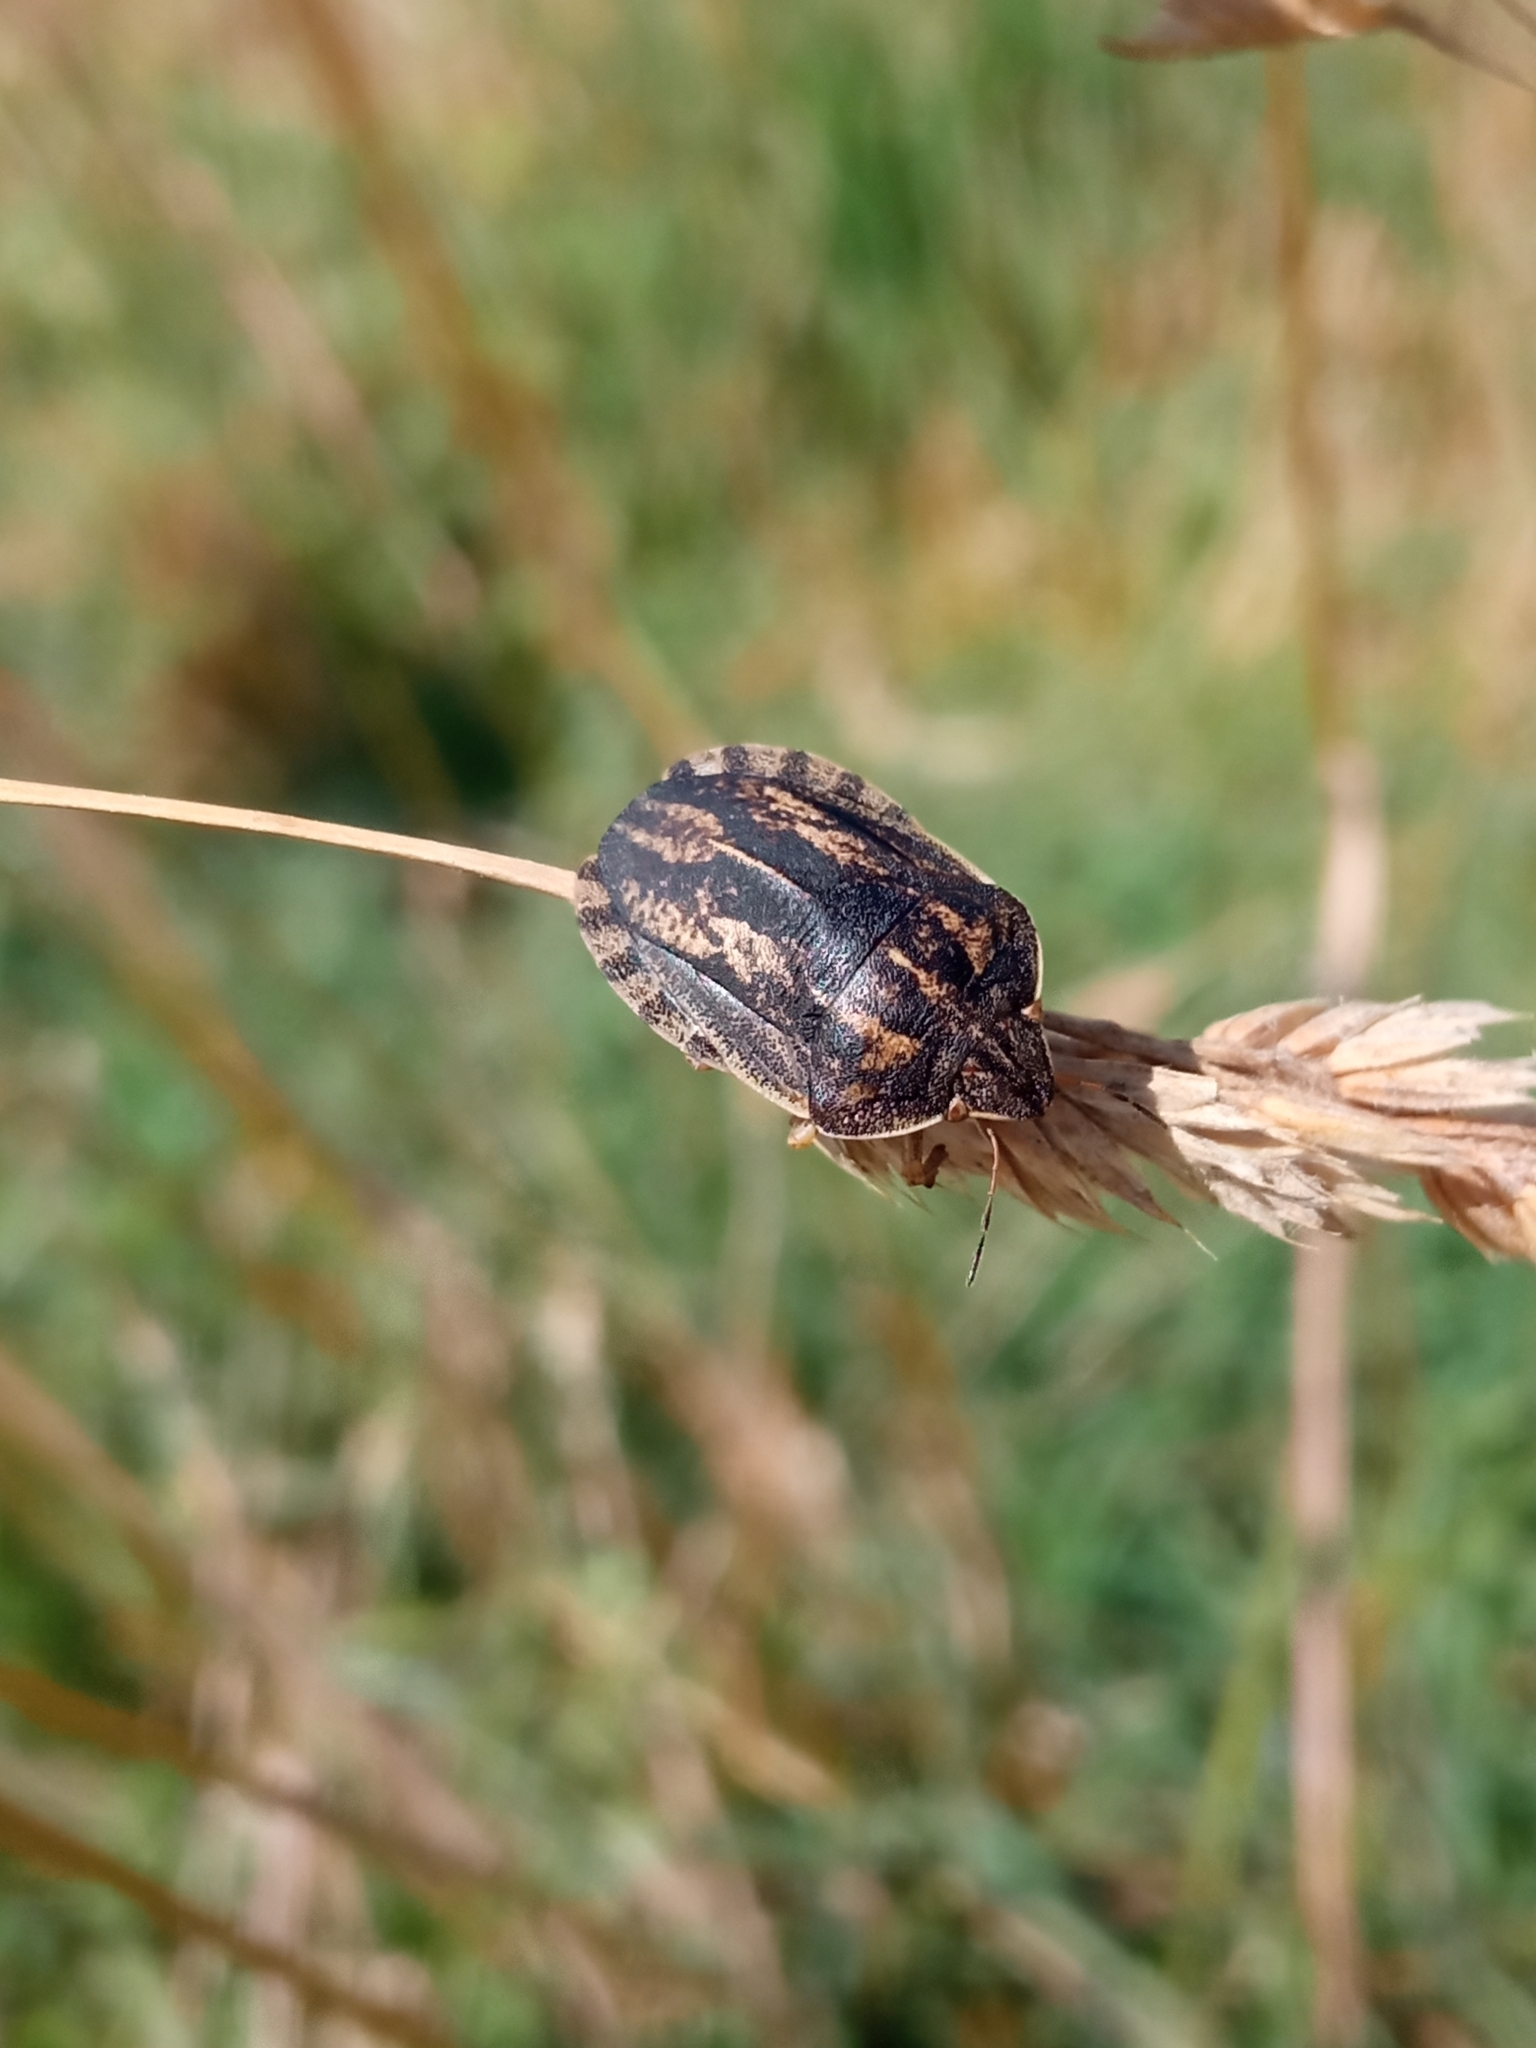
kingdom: Animalia
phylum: Arthropoda
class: Insecta
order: Hemiptera
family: Scutelleridae
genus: Eurygaster
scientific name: Eurygaster austriaca
